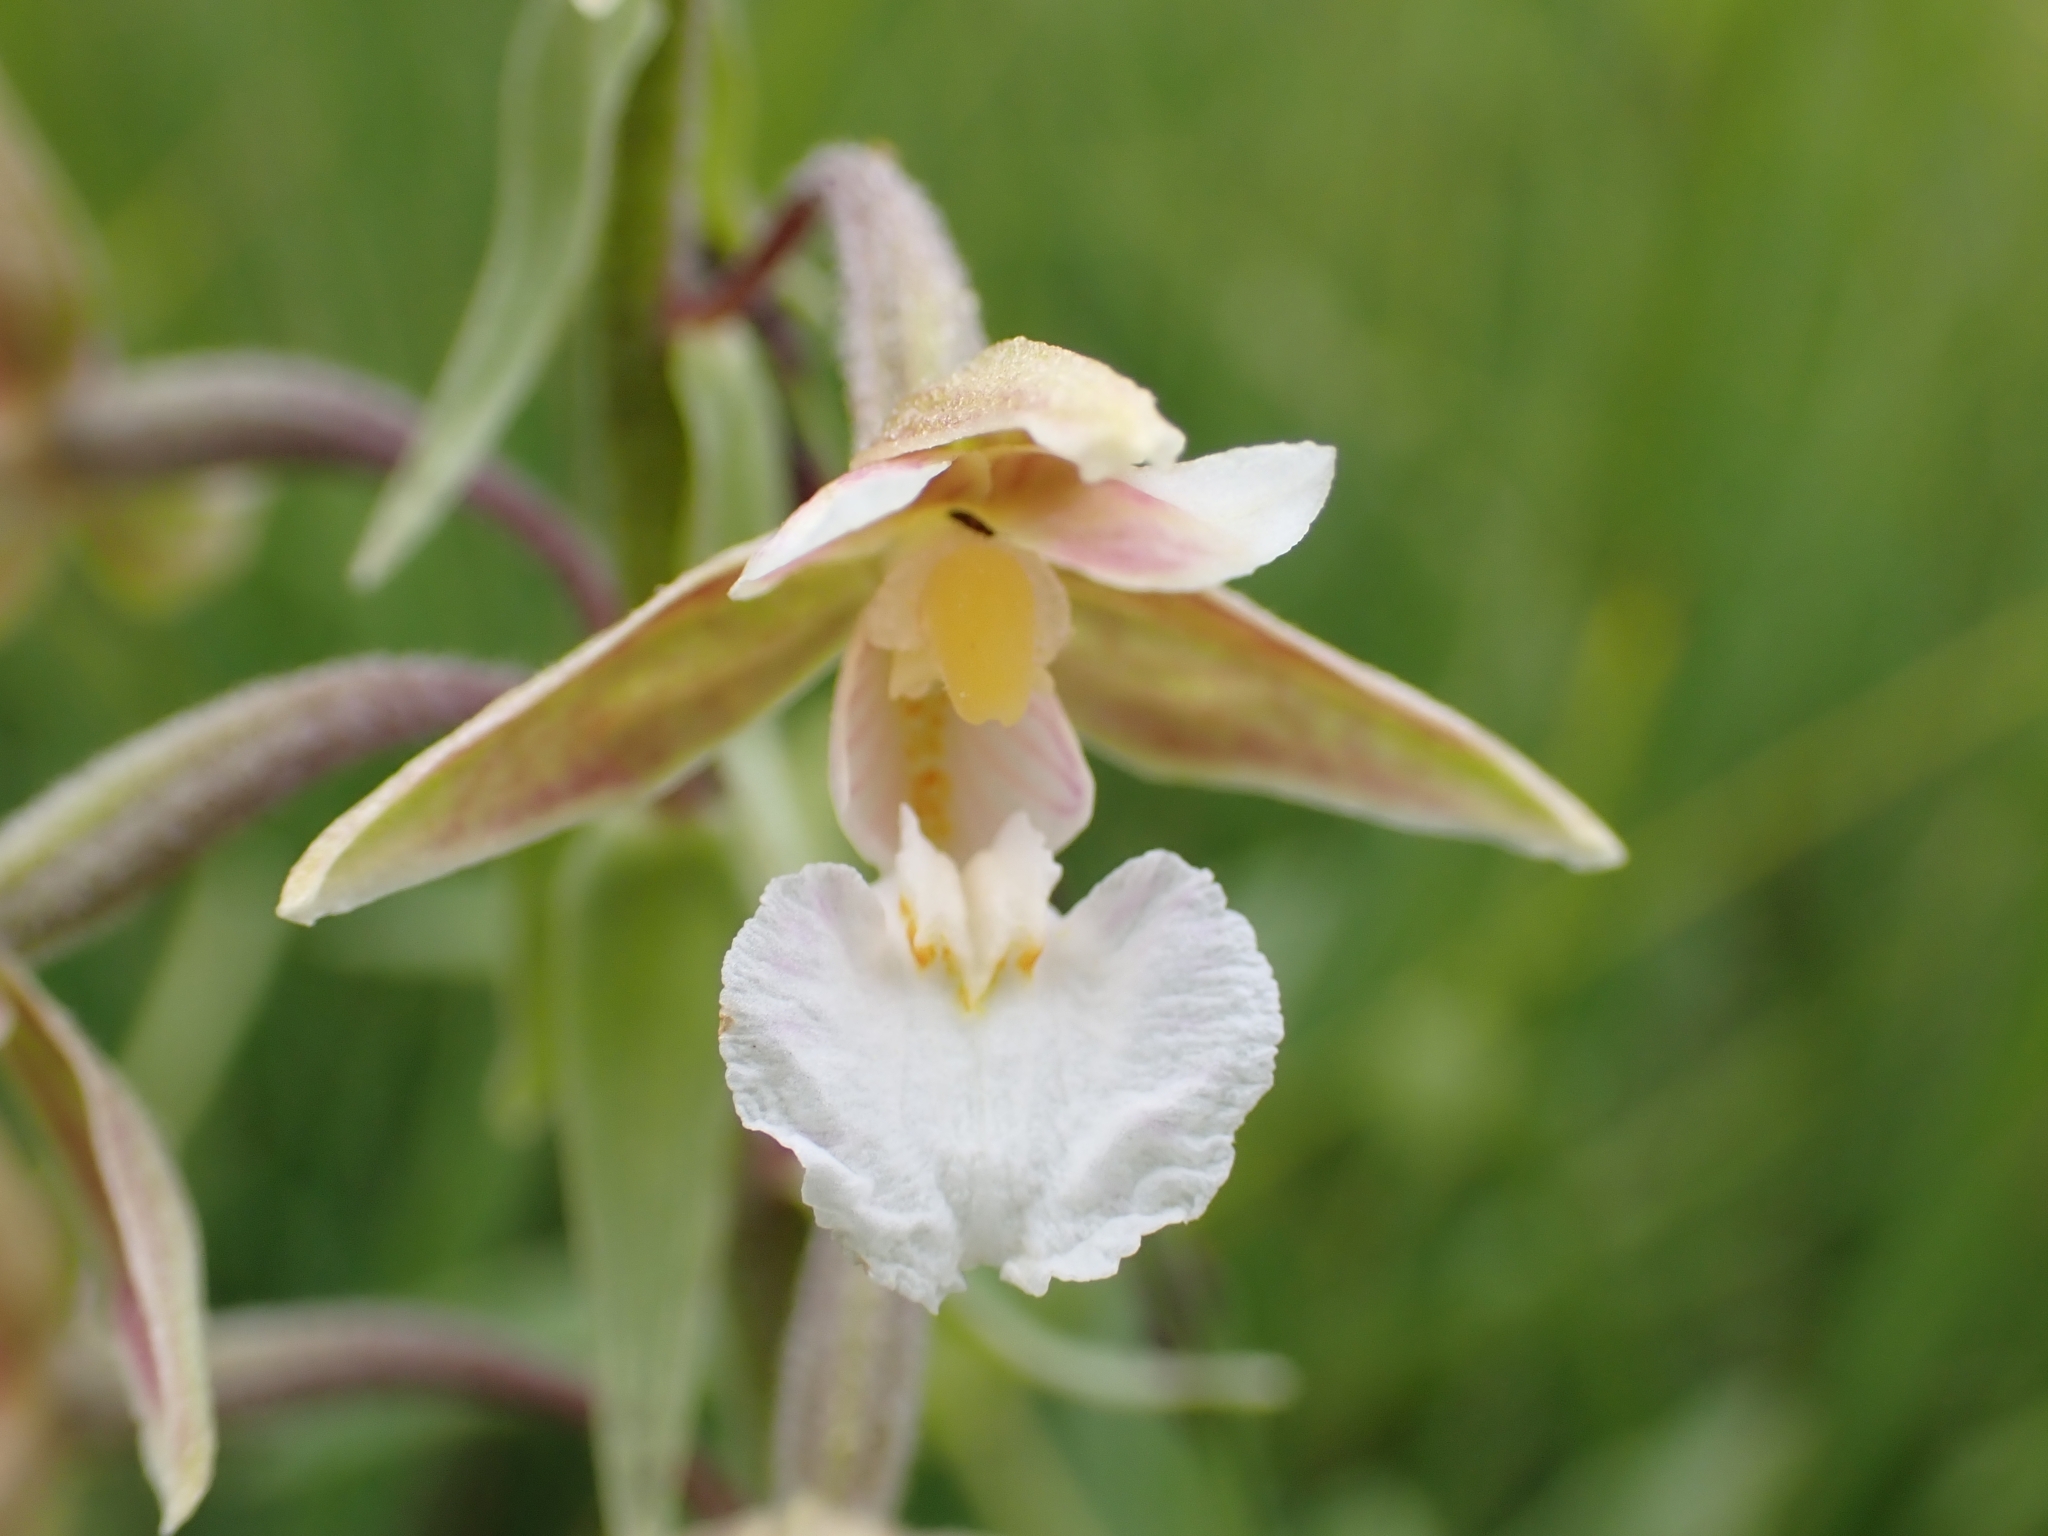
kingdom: Plantae
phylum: Tracheophyta
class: Liliopsida
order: Asparagales
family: Orchidaceae
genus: Epipactis
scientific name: Epipactis palustris
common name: Marsh helleborine
